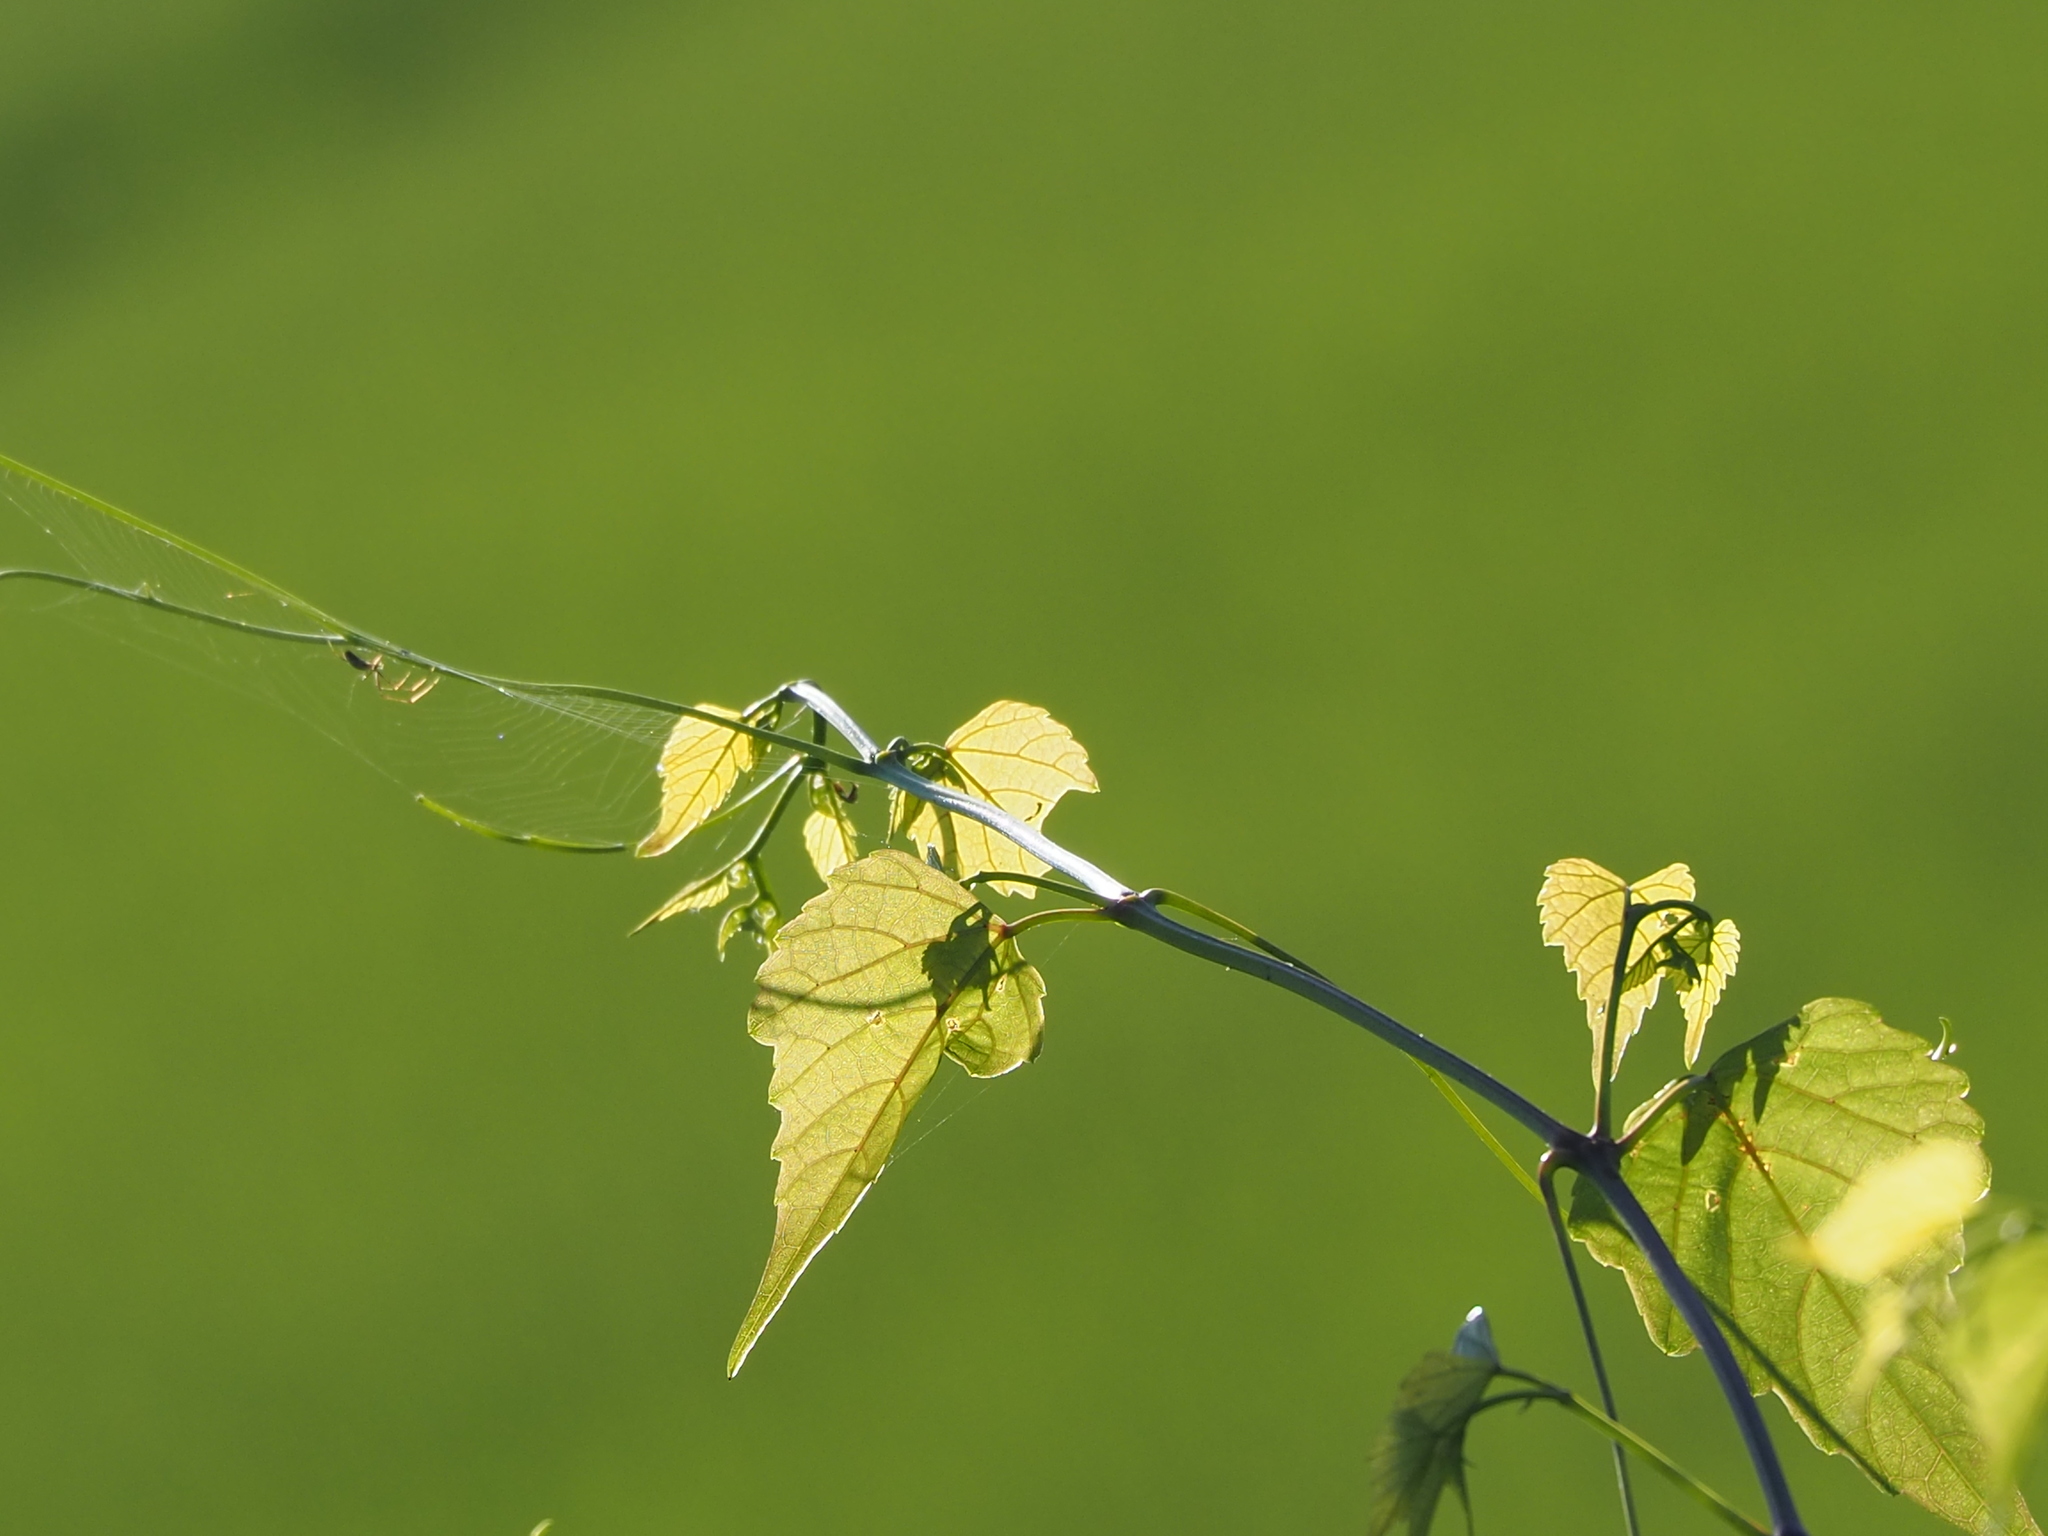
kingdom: Plantae
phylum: Tracheophyta
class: Magnoliopsida
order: Vitales
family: Vitaceae
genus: Ampelopsis
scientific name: Ampelopsis glandulosa
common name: Amur peppervine
